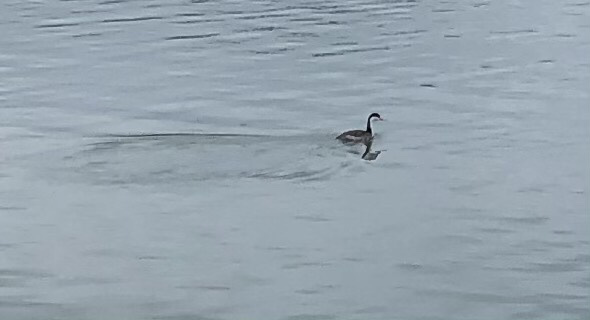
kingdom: Animalia
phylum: Chordata
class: Aves
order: Podicipediformes
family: Podicipedidae
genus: Aechmophorus
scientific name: Aechmophorus occidentalis
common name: Western grebe
